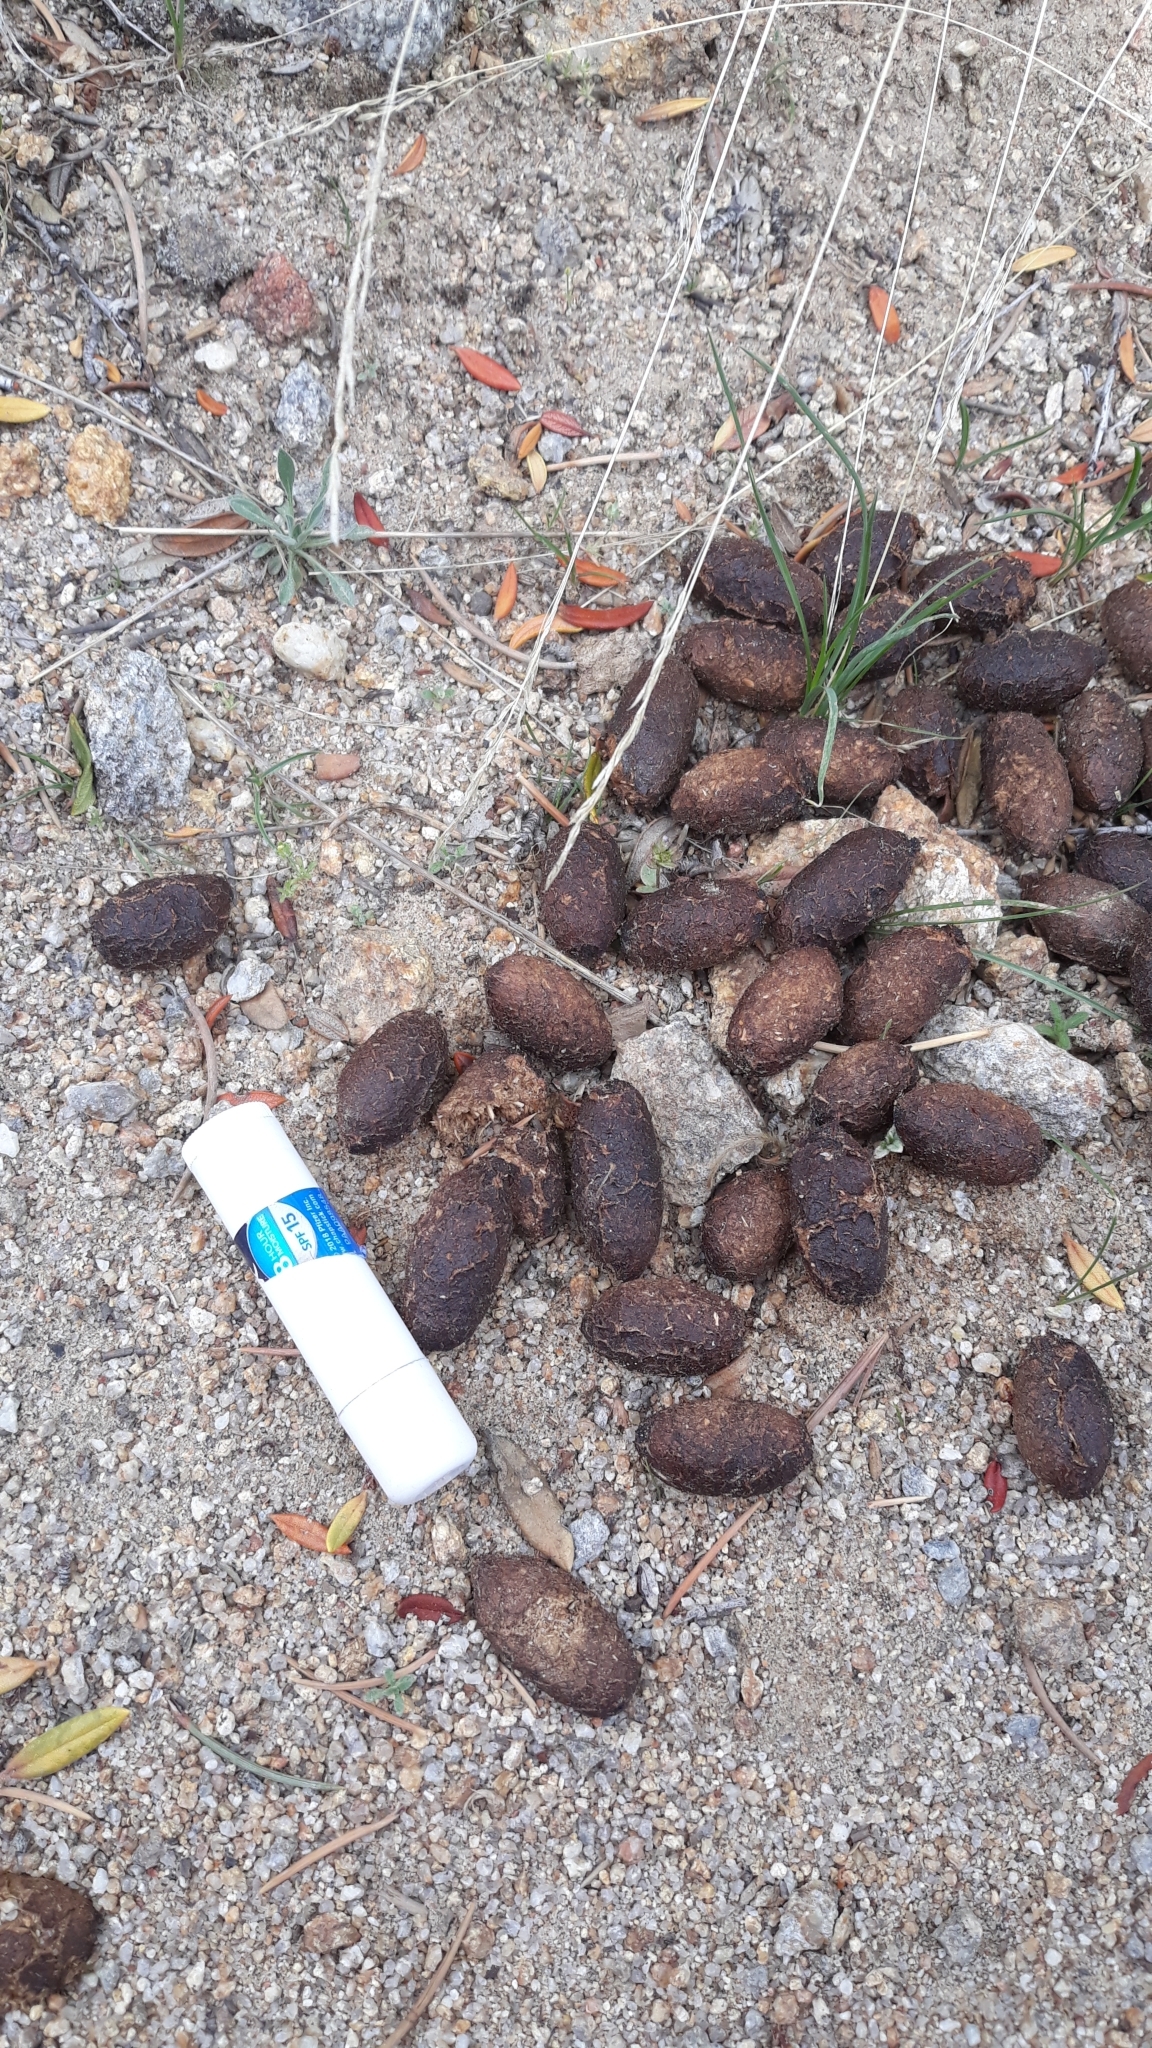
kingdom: Animalia
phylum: Chordata
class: Mammalia
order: Artiodactyla
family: Cervidae
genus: Alces
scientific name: Alces alces
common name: Moose
